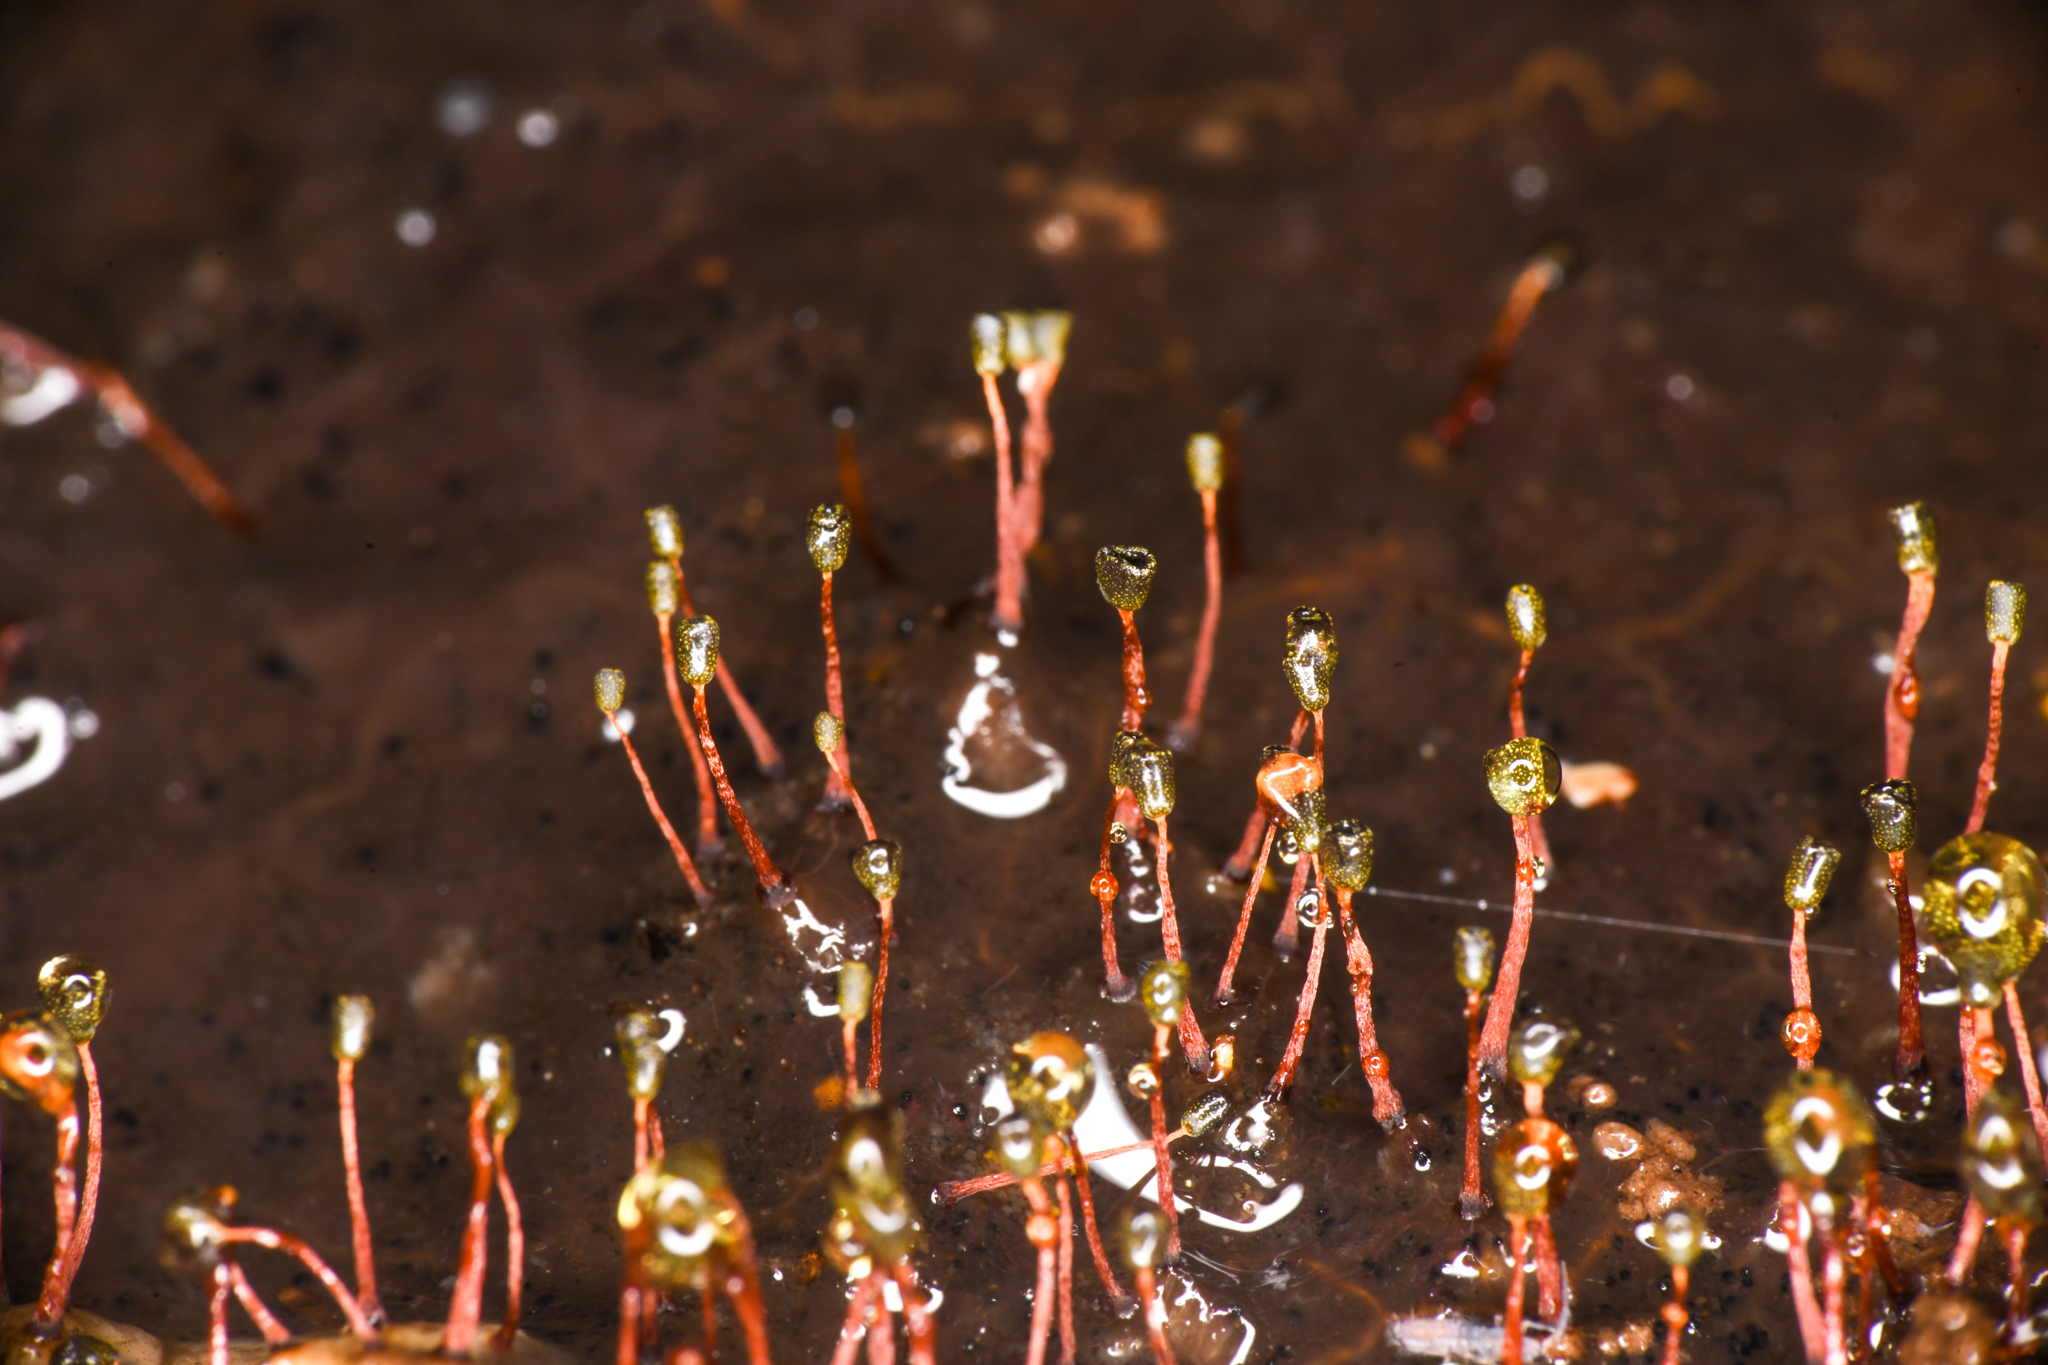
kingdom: Protozoa
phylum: Mycetozoa
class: Myxomycetes
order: Physarales
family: Physaraceae
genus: Physarella
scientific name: Physarella oblonga
